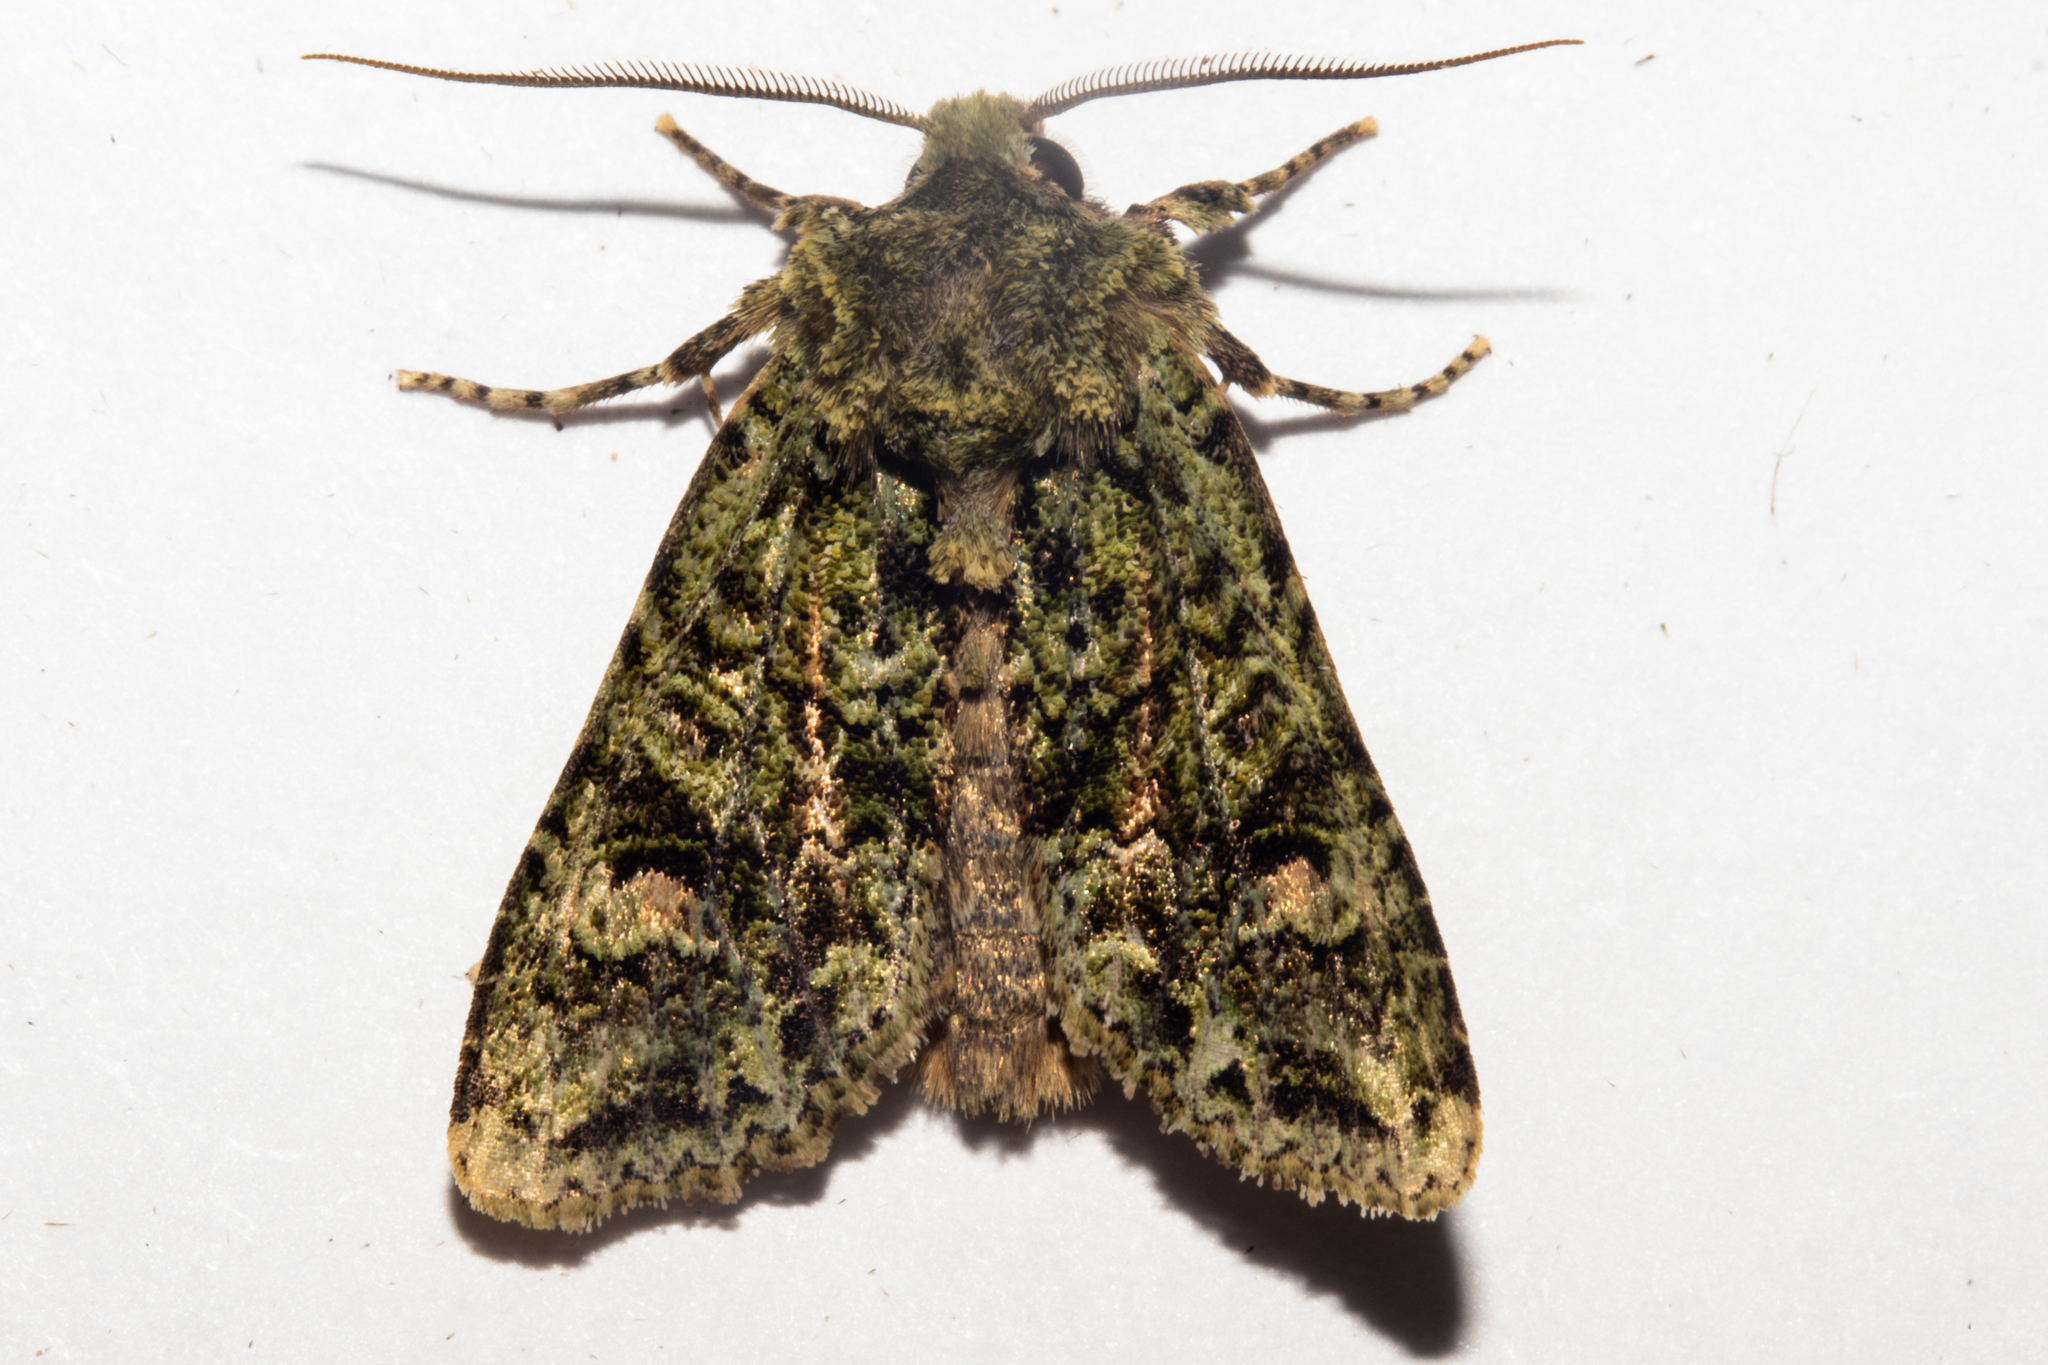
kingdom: Animalia
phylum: Arthropoda
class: Insecta
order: Lepidoptera
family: Noctuidae
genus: Ichneutica
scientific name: Ichneutica
